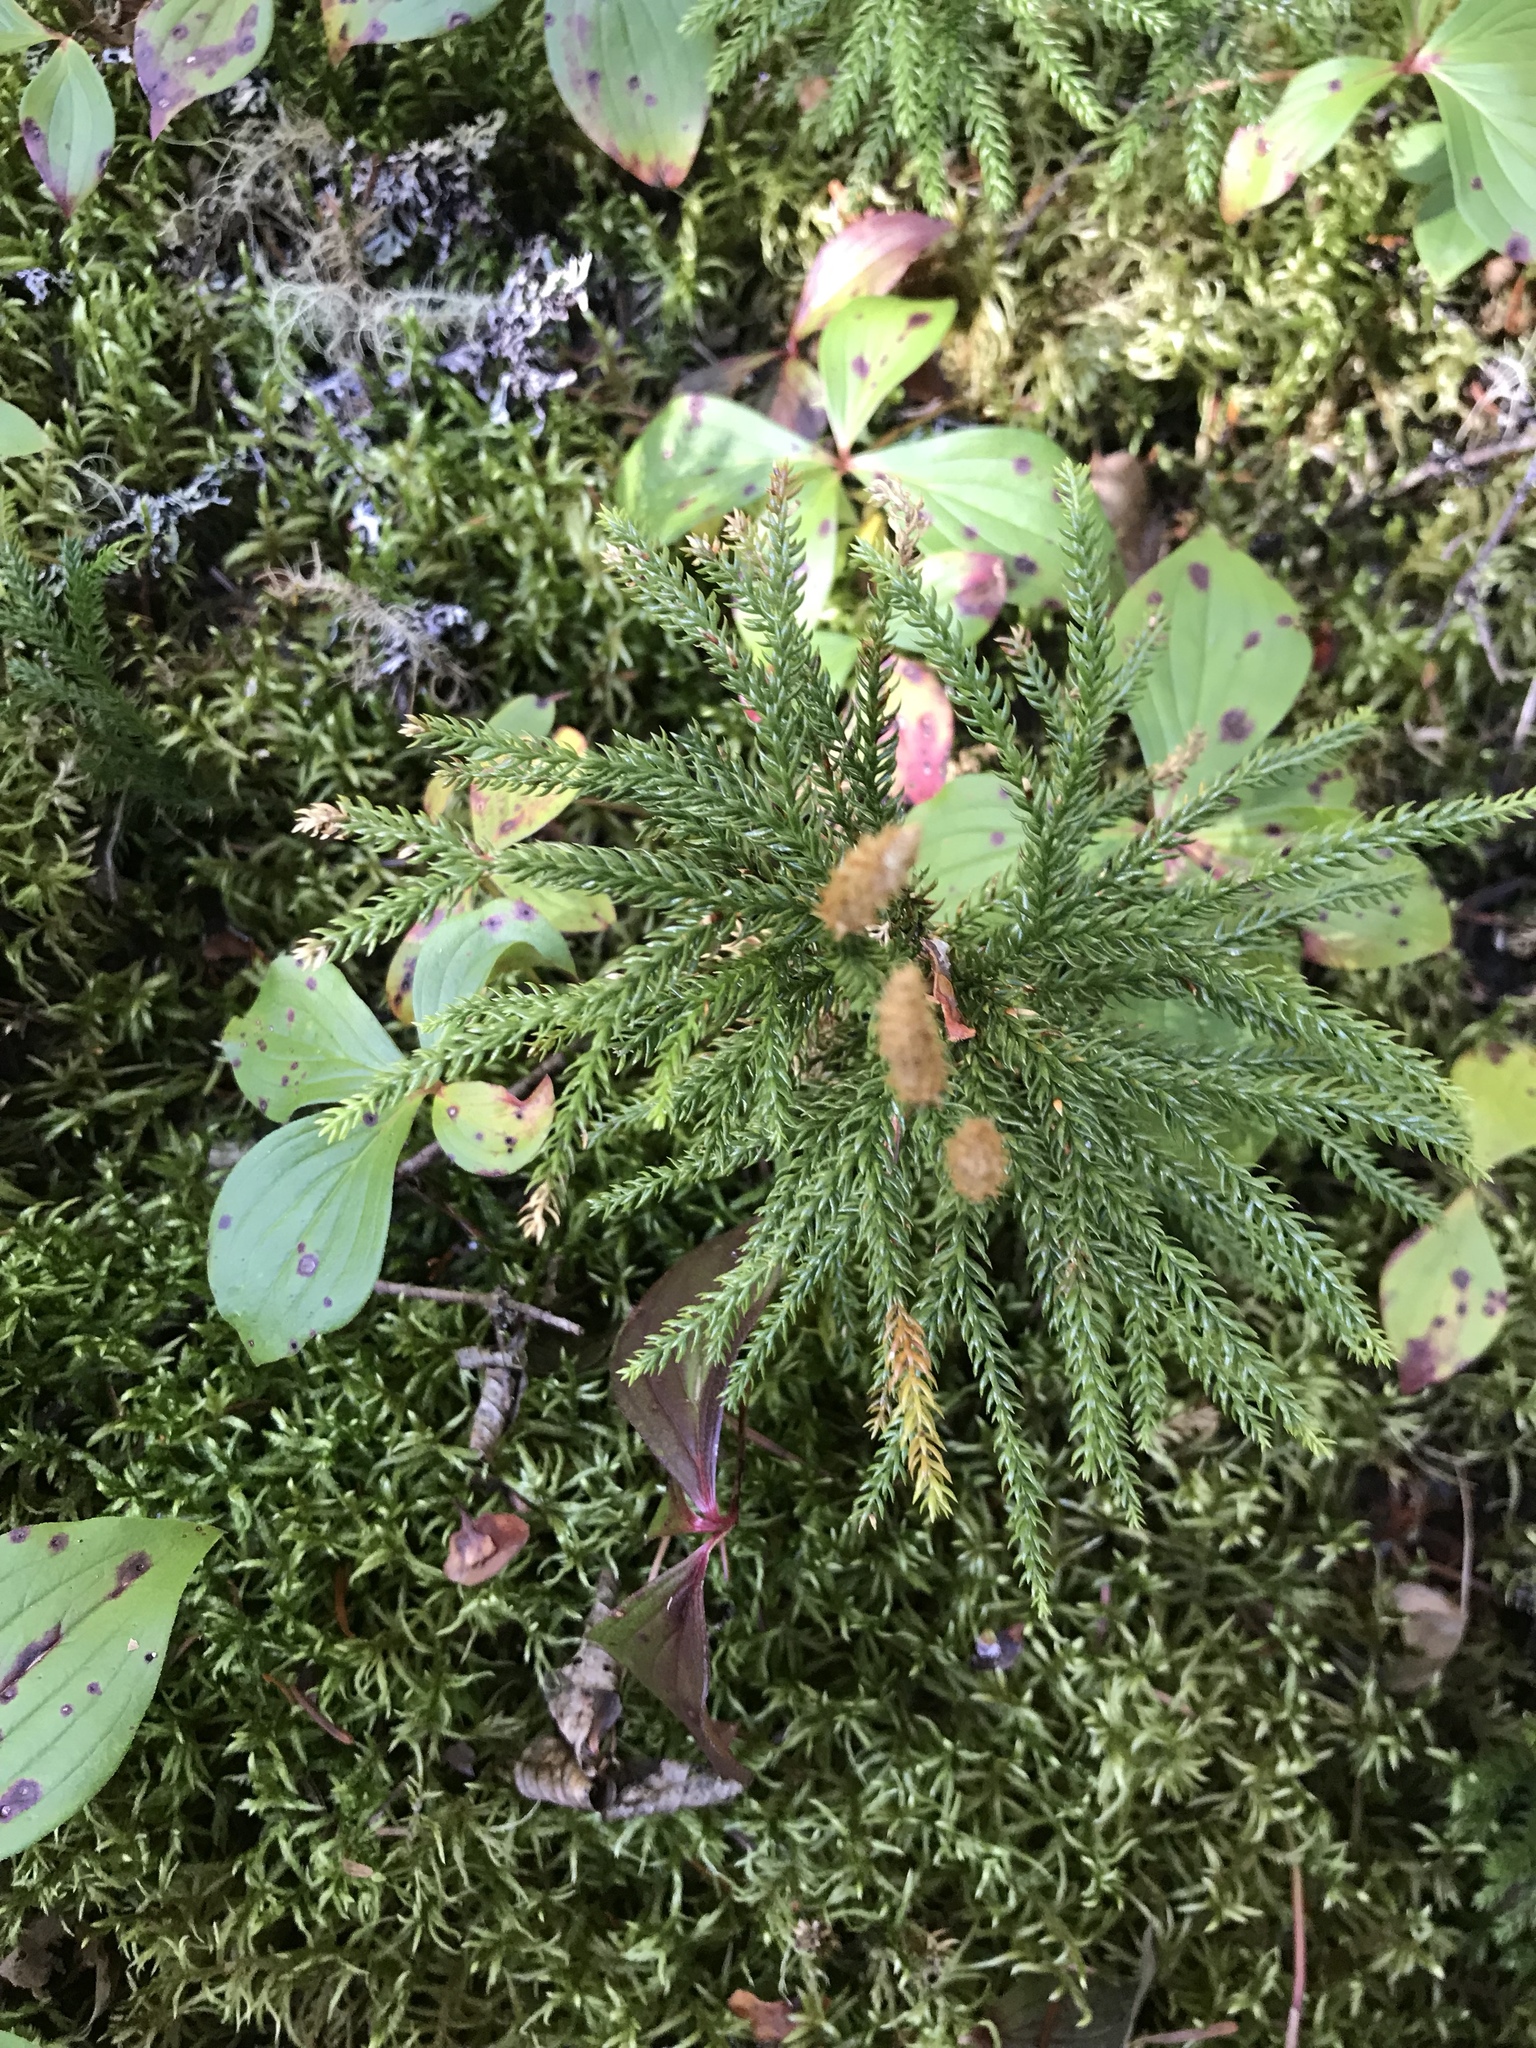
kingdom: Plantae
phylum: Tracheophyta
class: Lycopodiopsida
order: Lycopodiales
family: Lycopodiaceae
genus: Dendrolycopodium
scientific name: Dendrolycopodium dendroideum
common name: Northern tree-clubmoss
